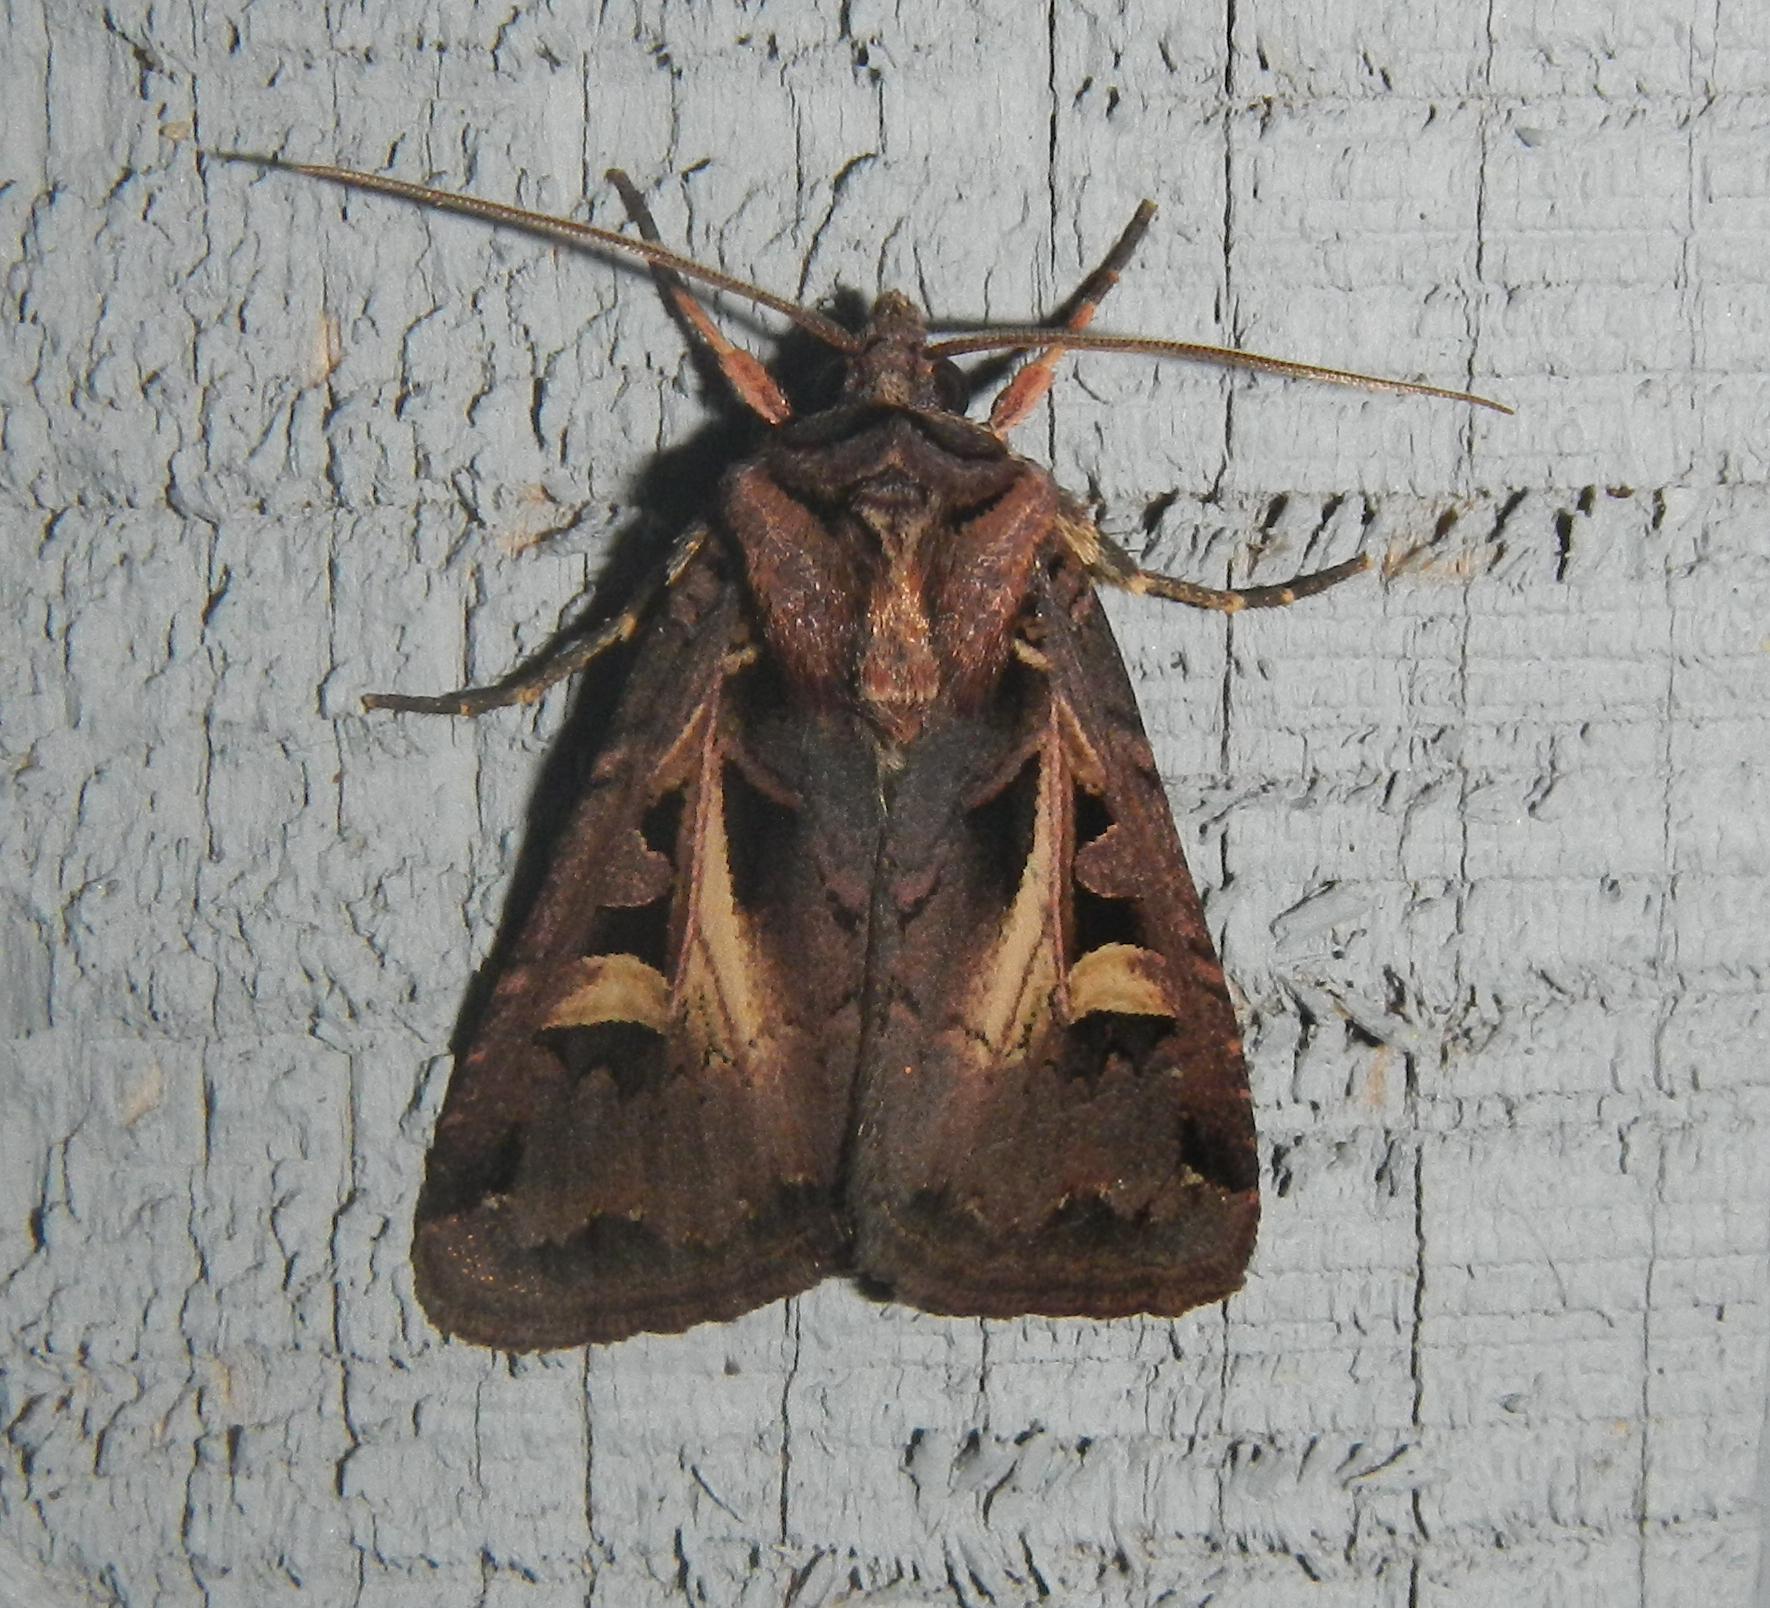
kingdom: Animalia
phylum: Arthropoda
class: Insecta
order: Lepidoptera
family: Noctuidae
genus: Feltia
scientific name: Feltia herilis
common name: Master's dart
